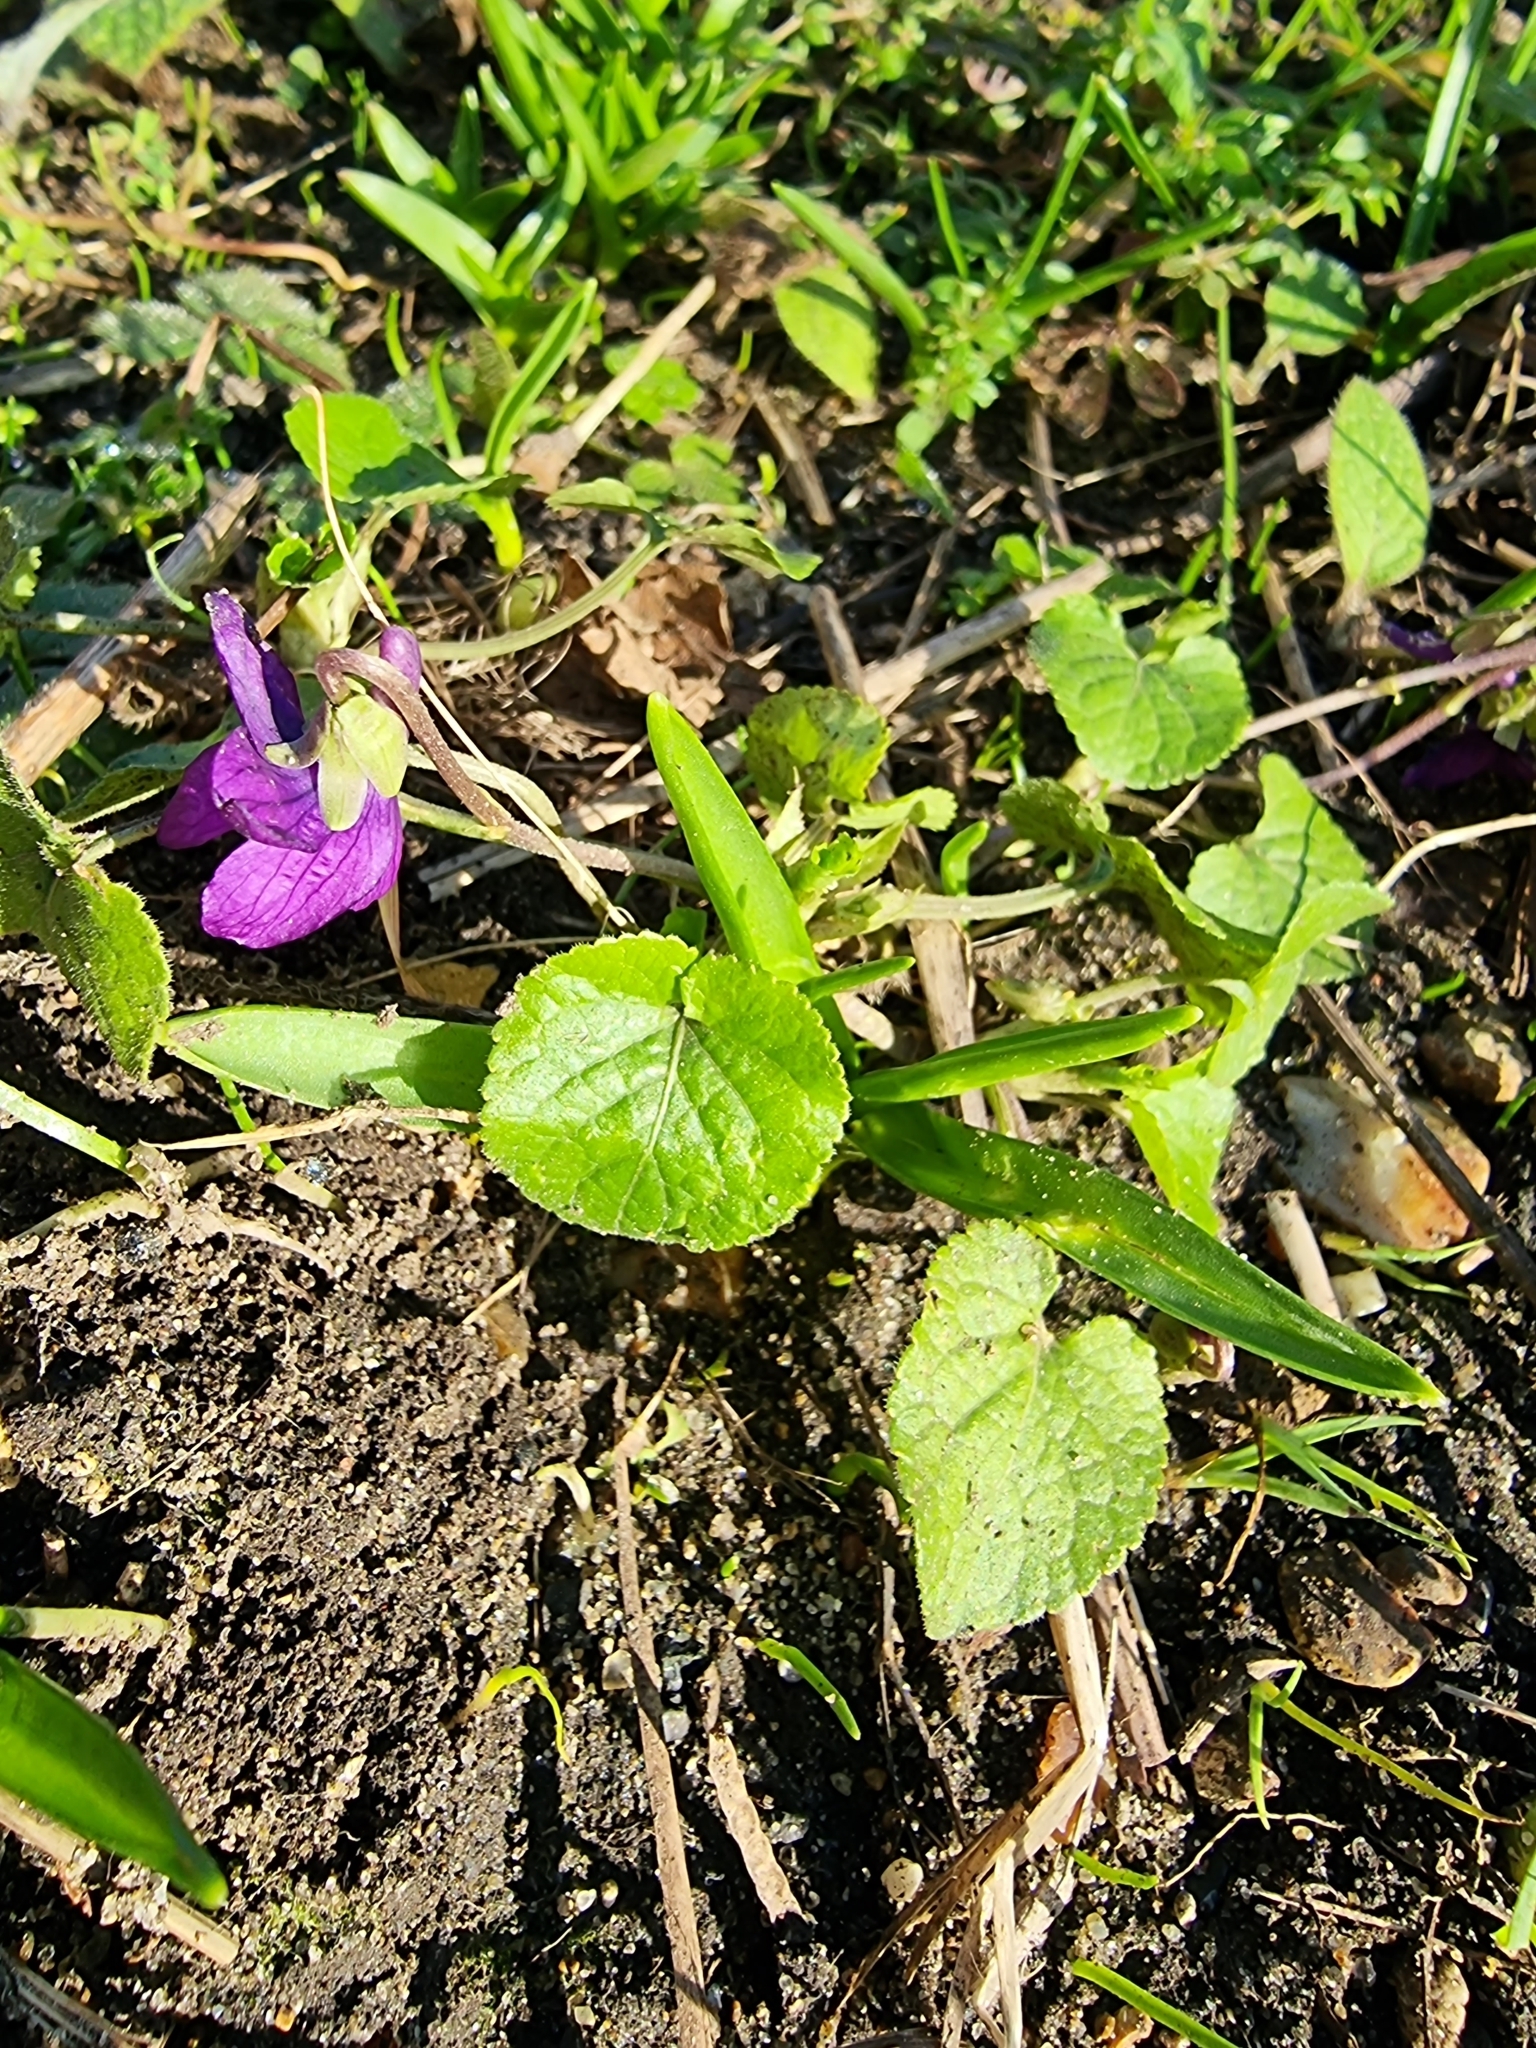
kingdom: Plantae
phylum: Tracheophyta
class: Magnoliopsida
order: Malpighiales
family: Violaceae
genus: Viola
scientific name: Viola odorata
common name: Sweet violet
